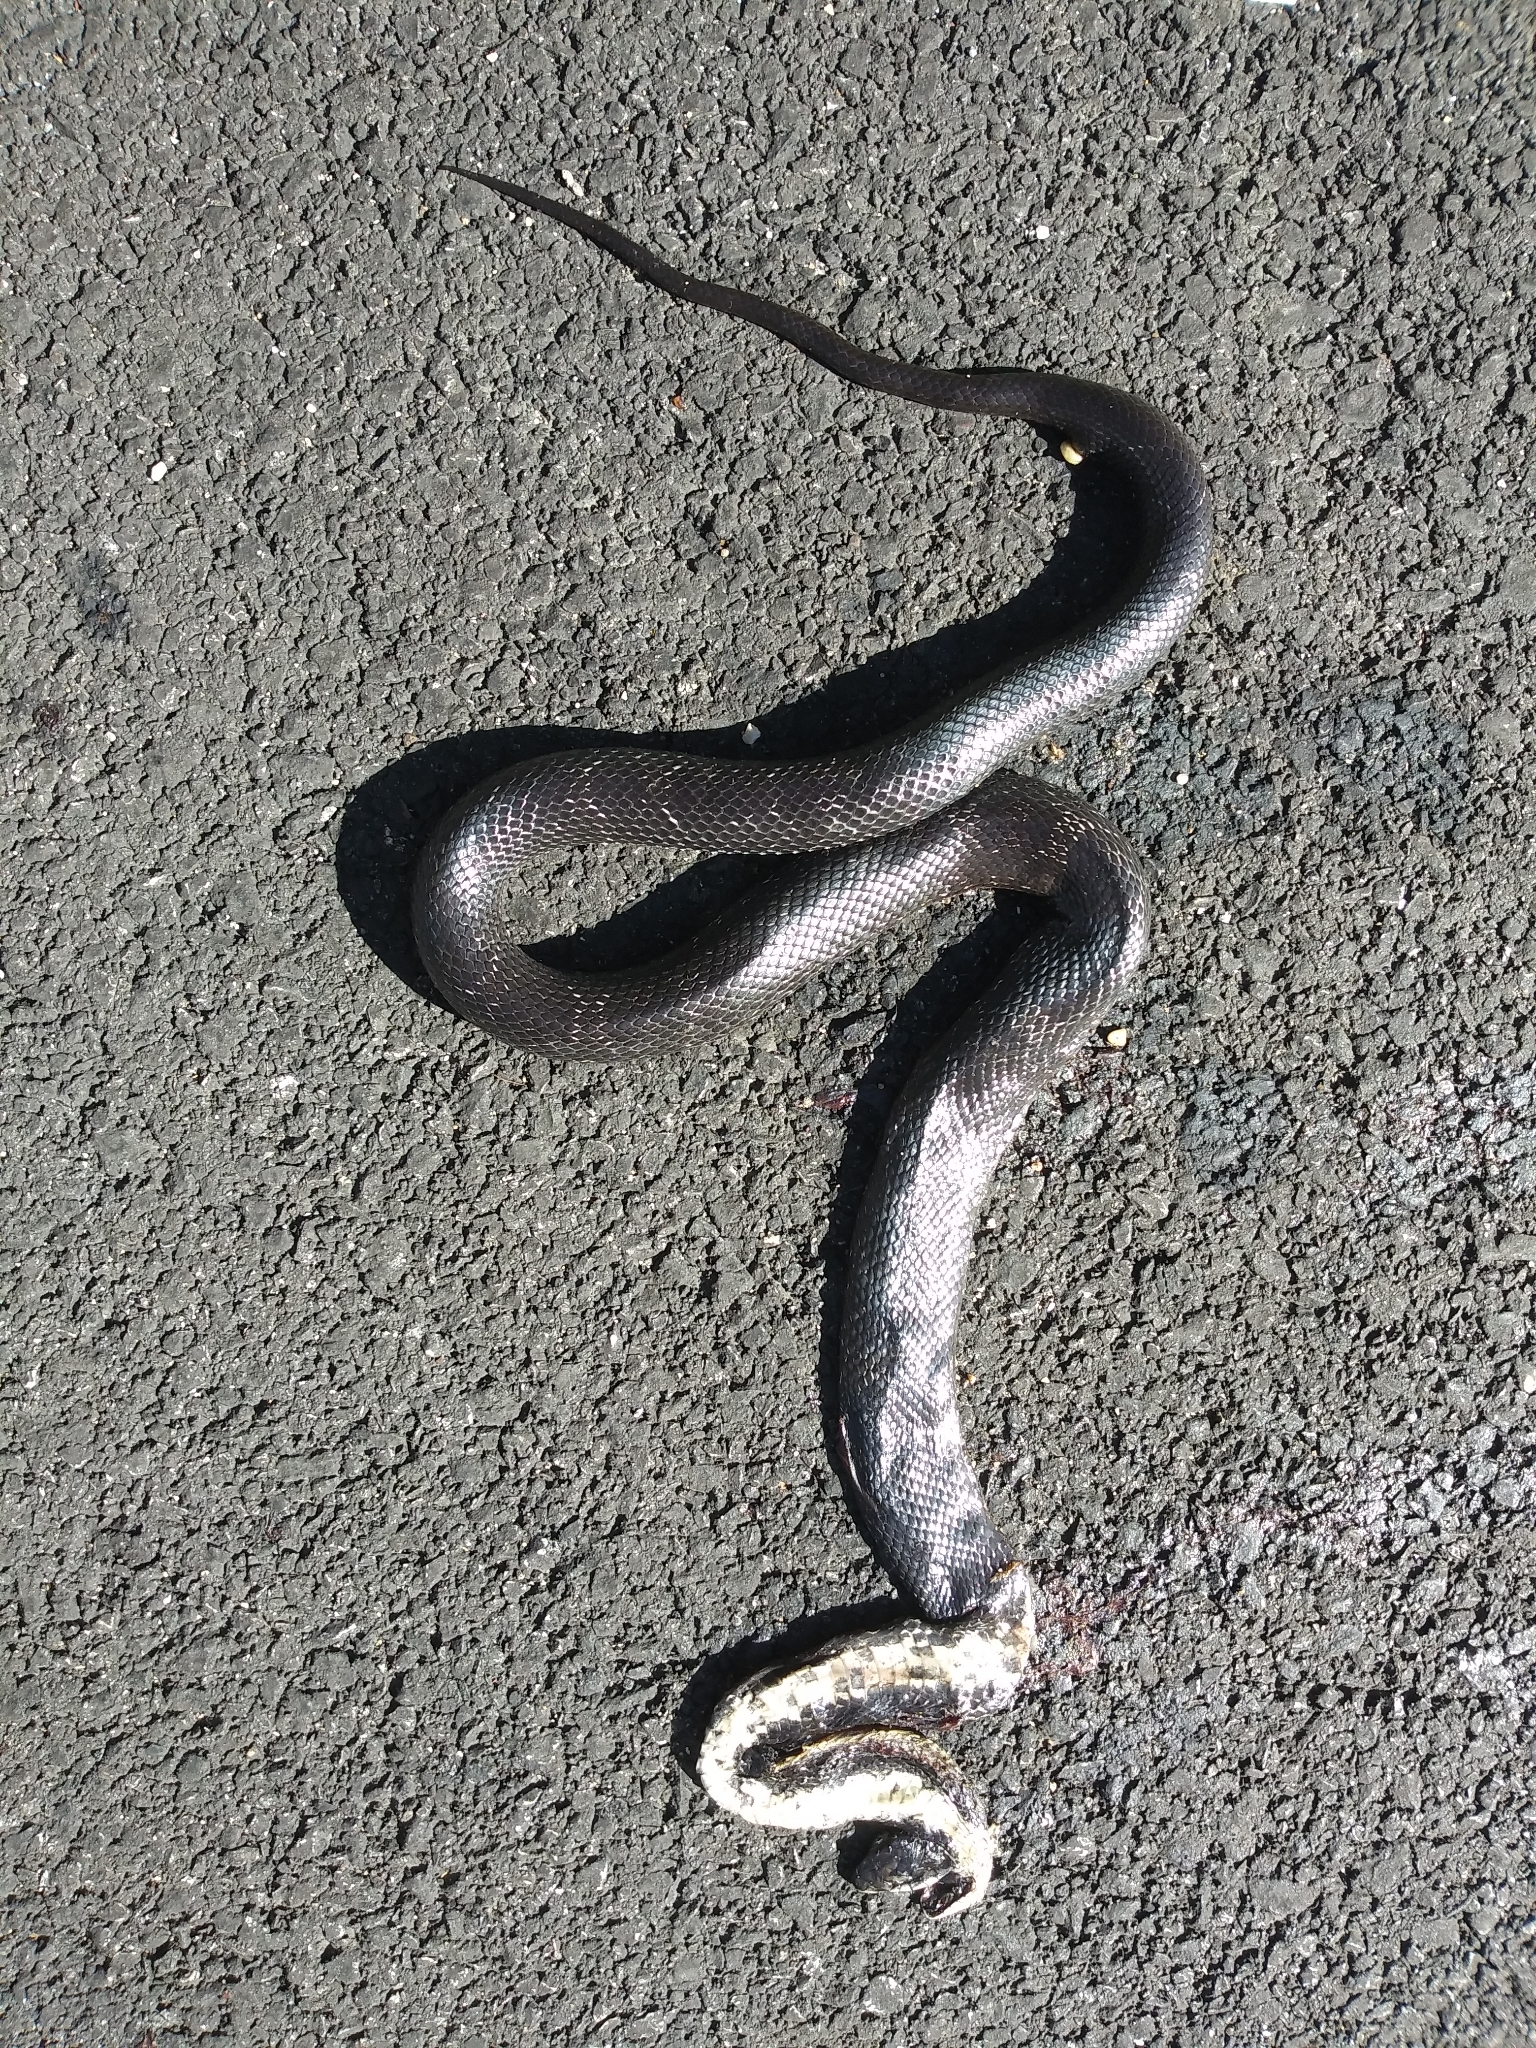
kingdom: Animalia
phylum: Chordata
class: Squamata
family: Colubridae
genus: Pantherophis
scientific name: Pantherophis
